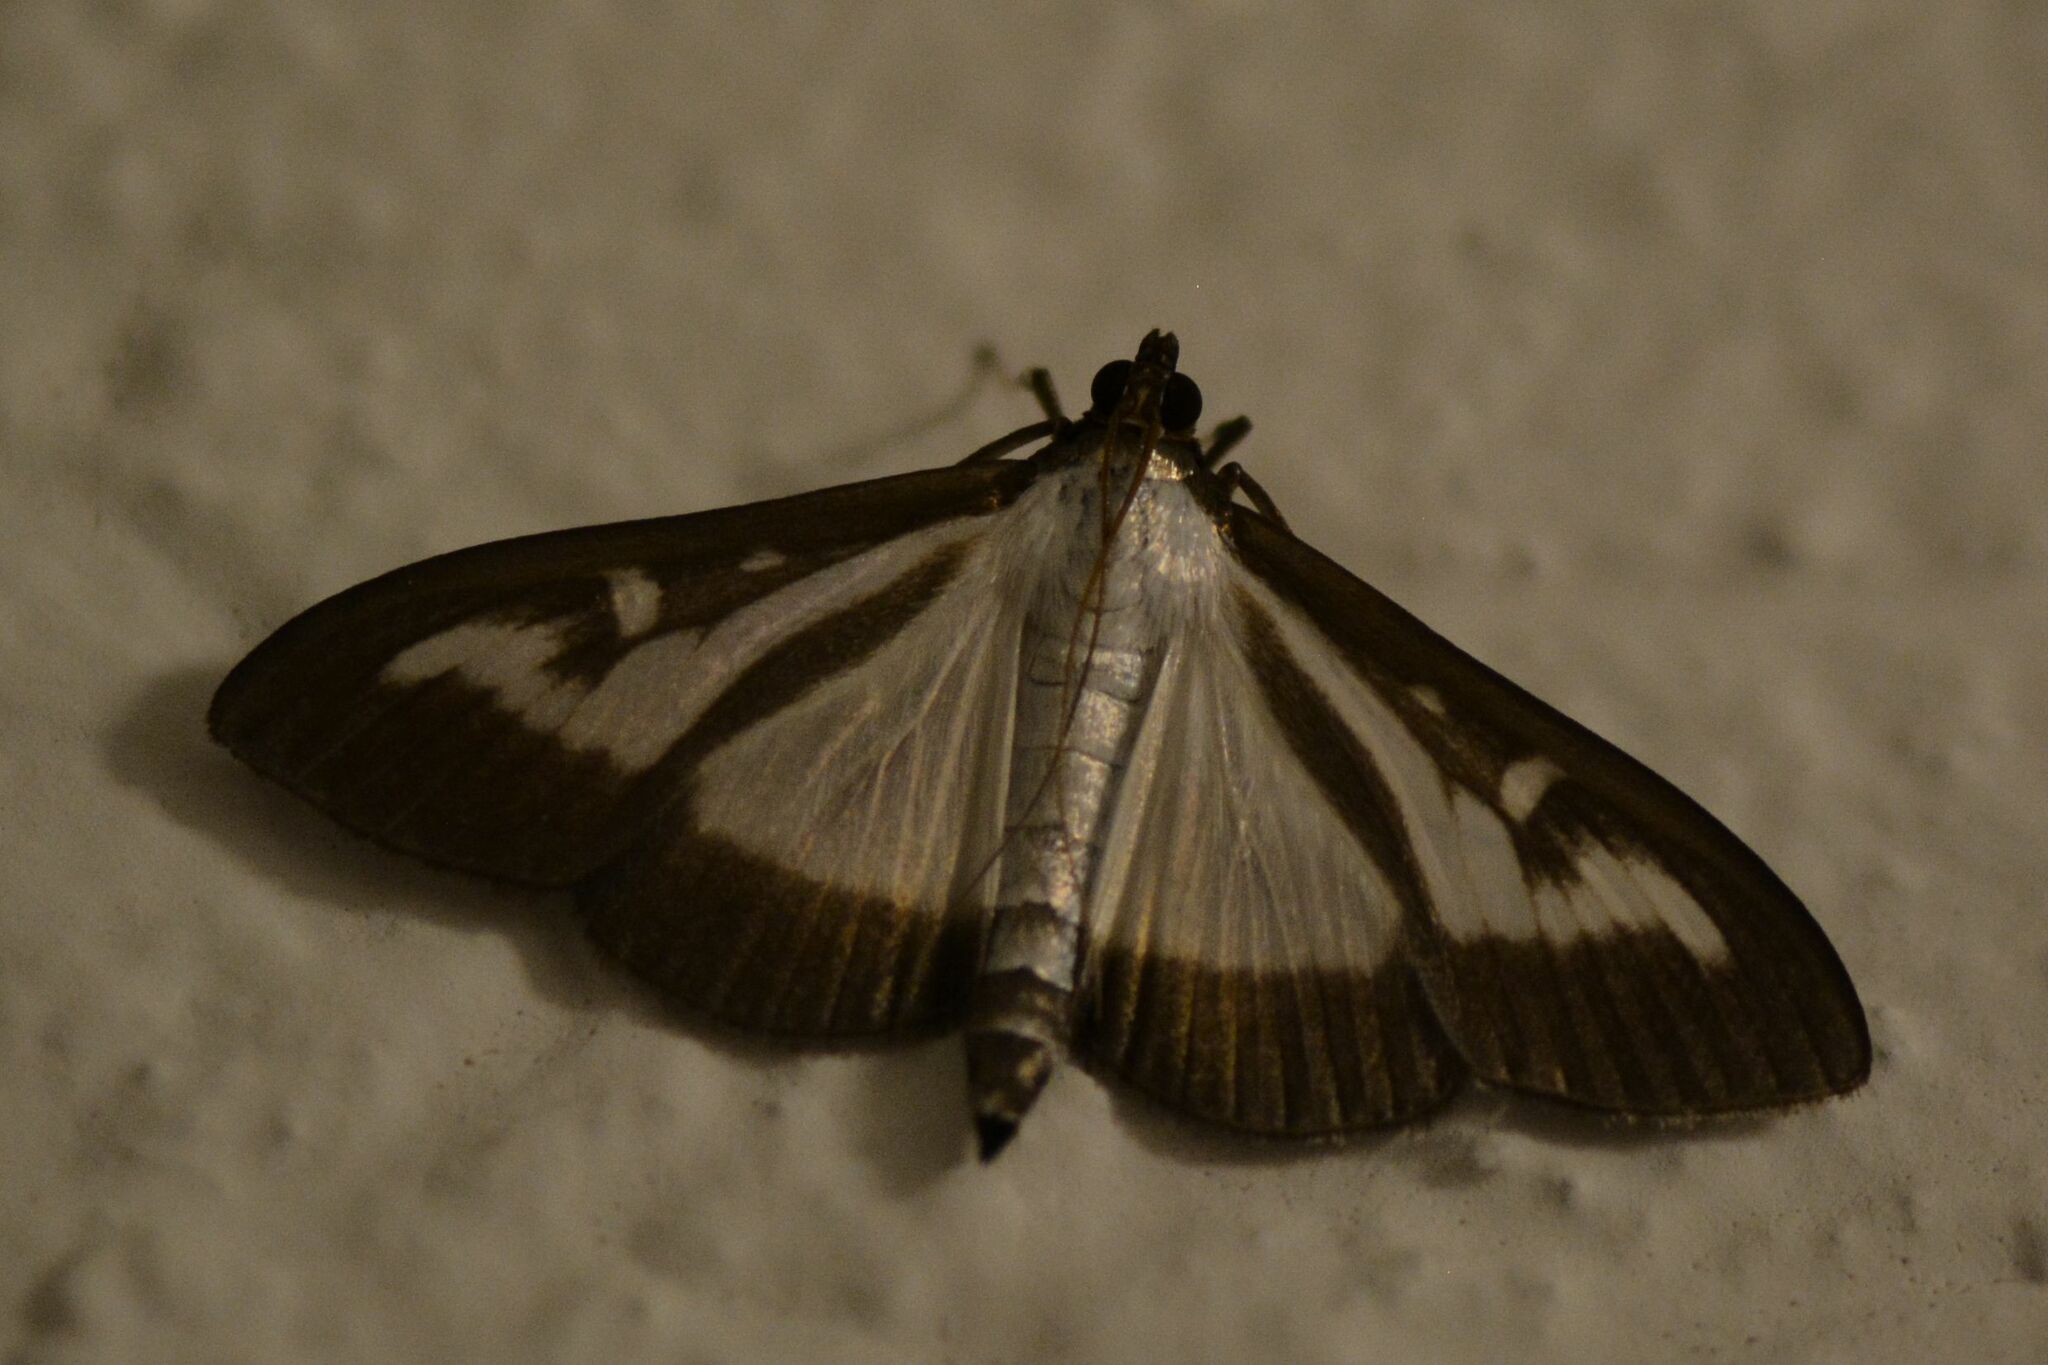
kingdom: Animalia
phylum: Arthropoda
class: Insecta
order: Lepidoptera
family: Crambidae
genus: Cydalima
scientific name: Cydalima perspectalis
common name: Box tree moth
